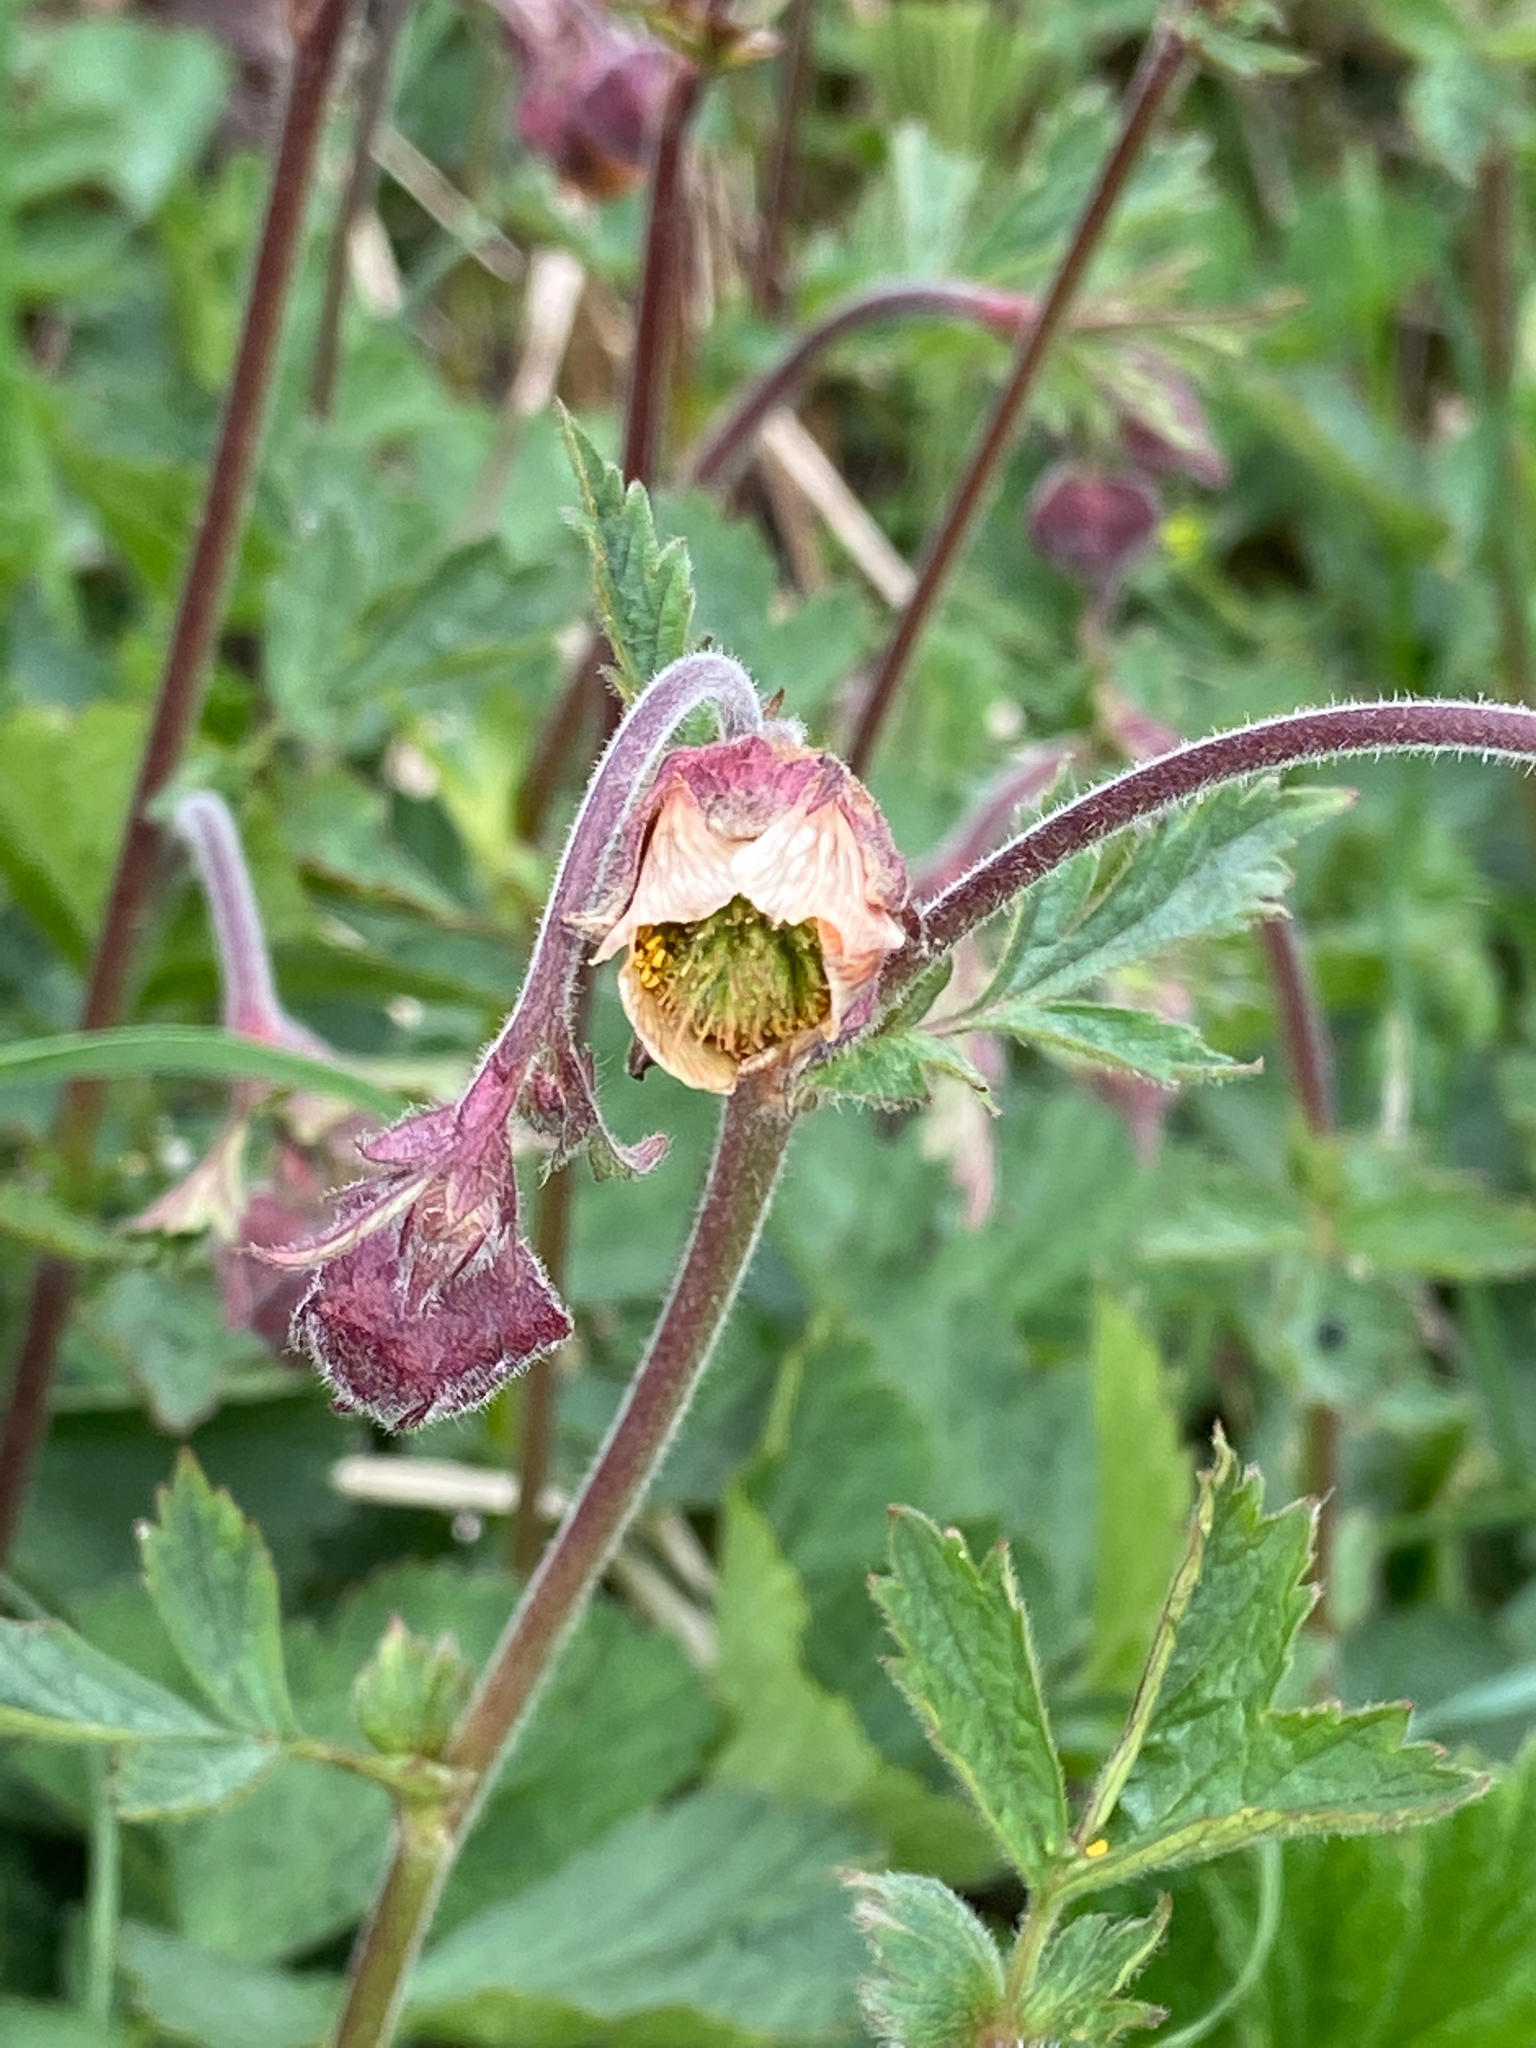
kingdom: Plantae
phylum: Tracheophyta
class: Magnoliopsida
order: Rosales
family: Rosaceae
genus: Geum
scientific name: Geum rivale
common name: Water avens
